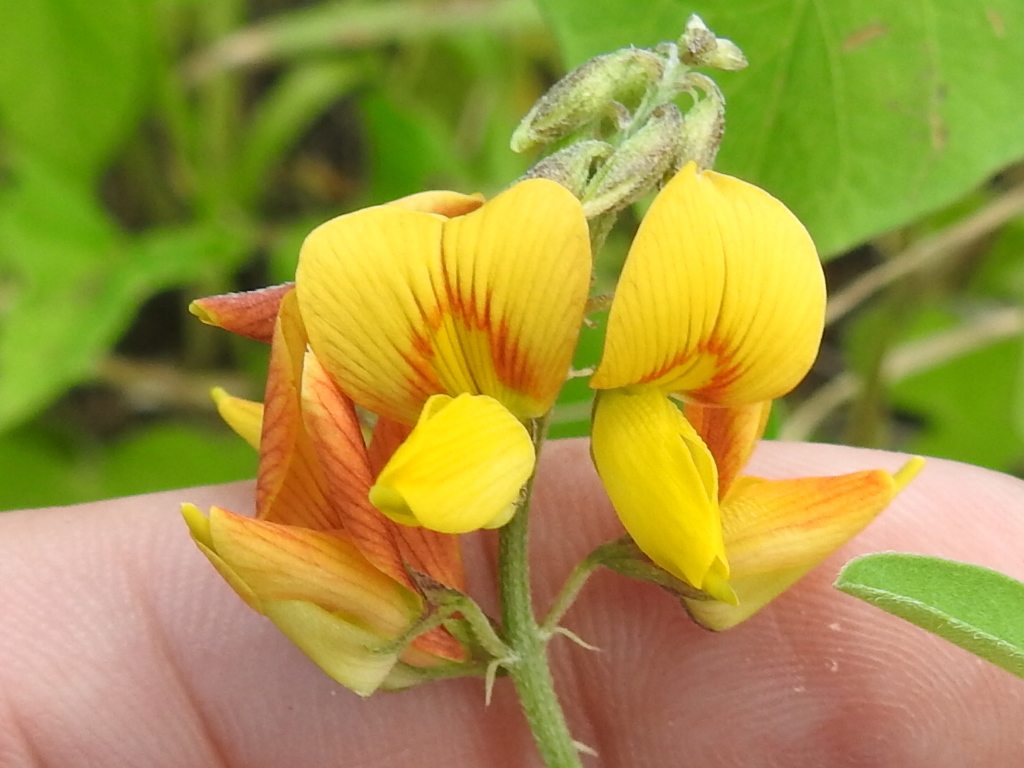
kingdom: Plantae
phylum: Tracheophyta
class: Magnoliopsida
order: Fabales
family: Fabaceae
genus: Crotalaria
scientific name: Crotalaria pumila
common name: Low rattlebox
